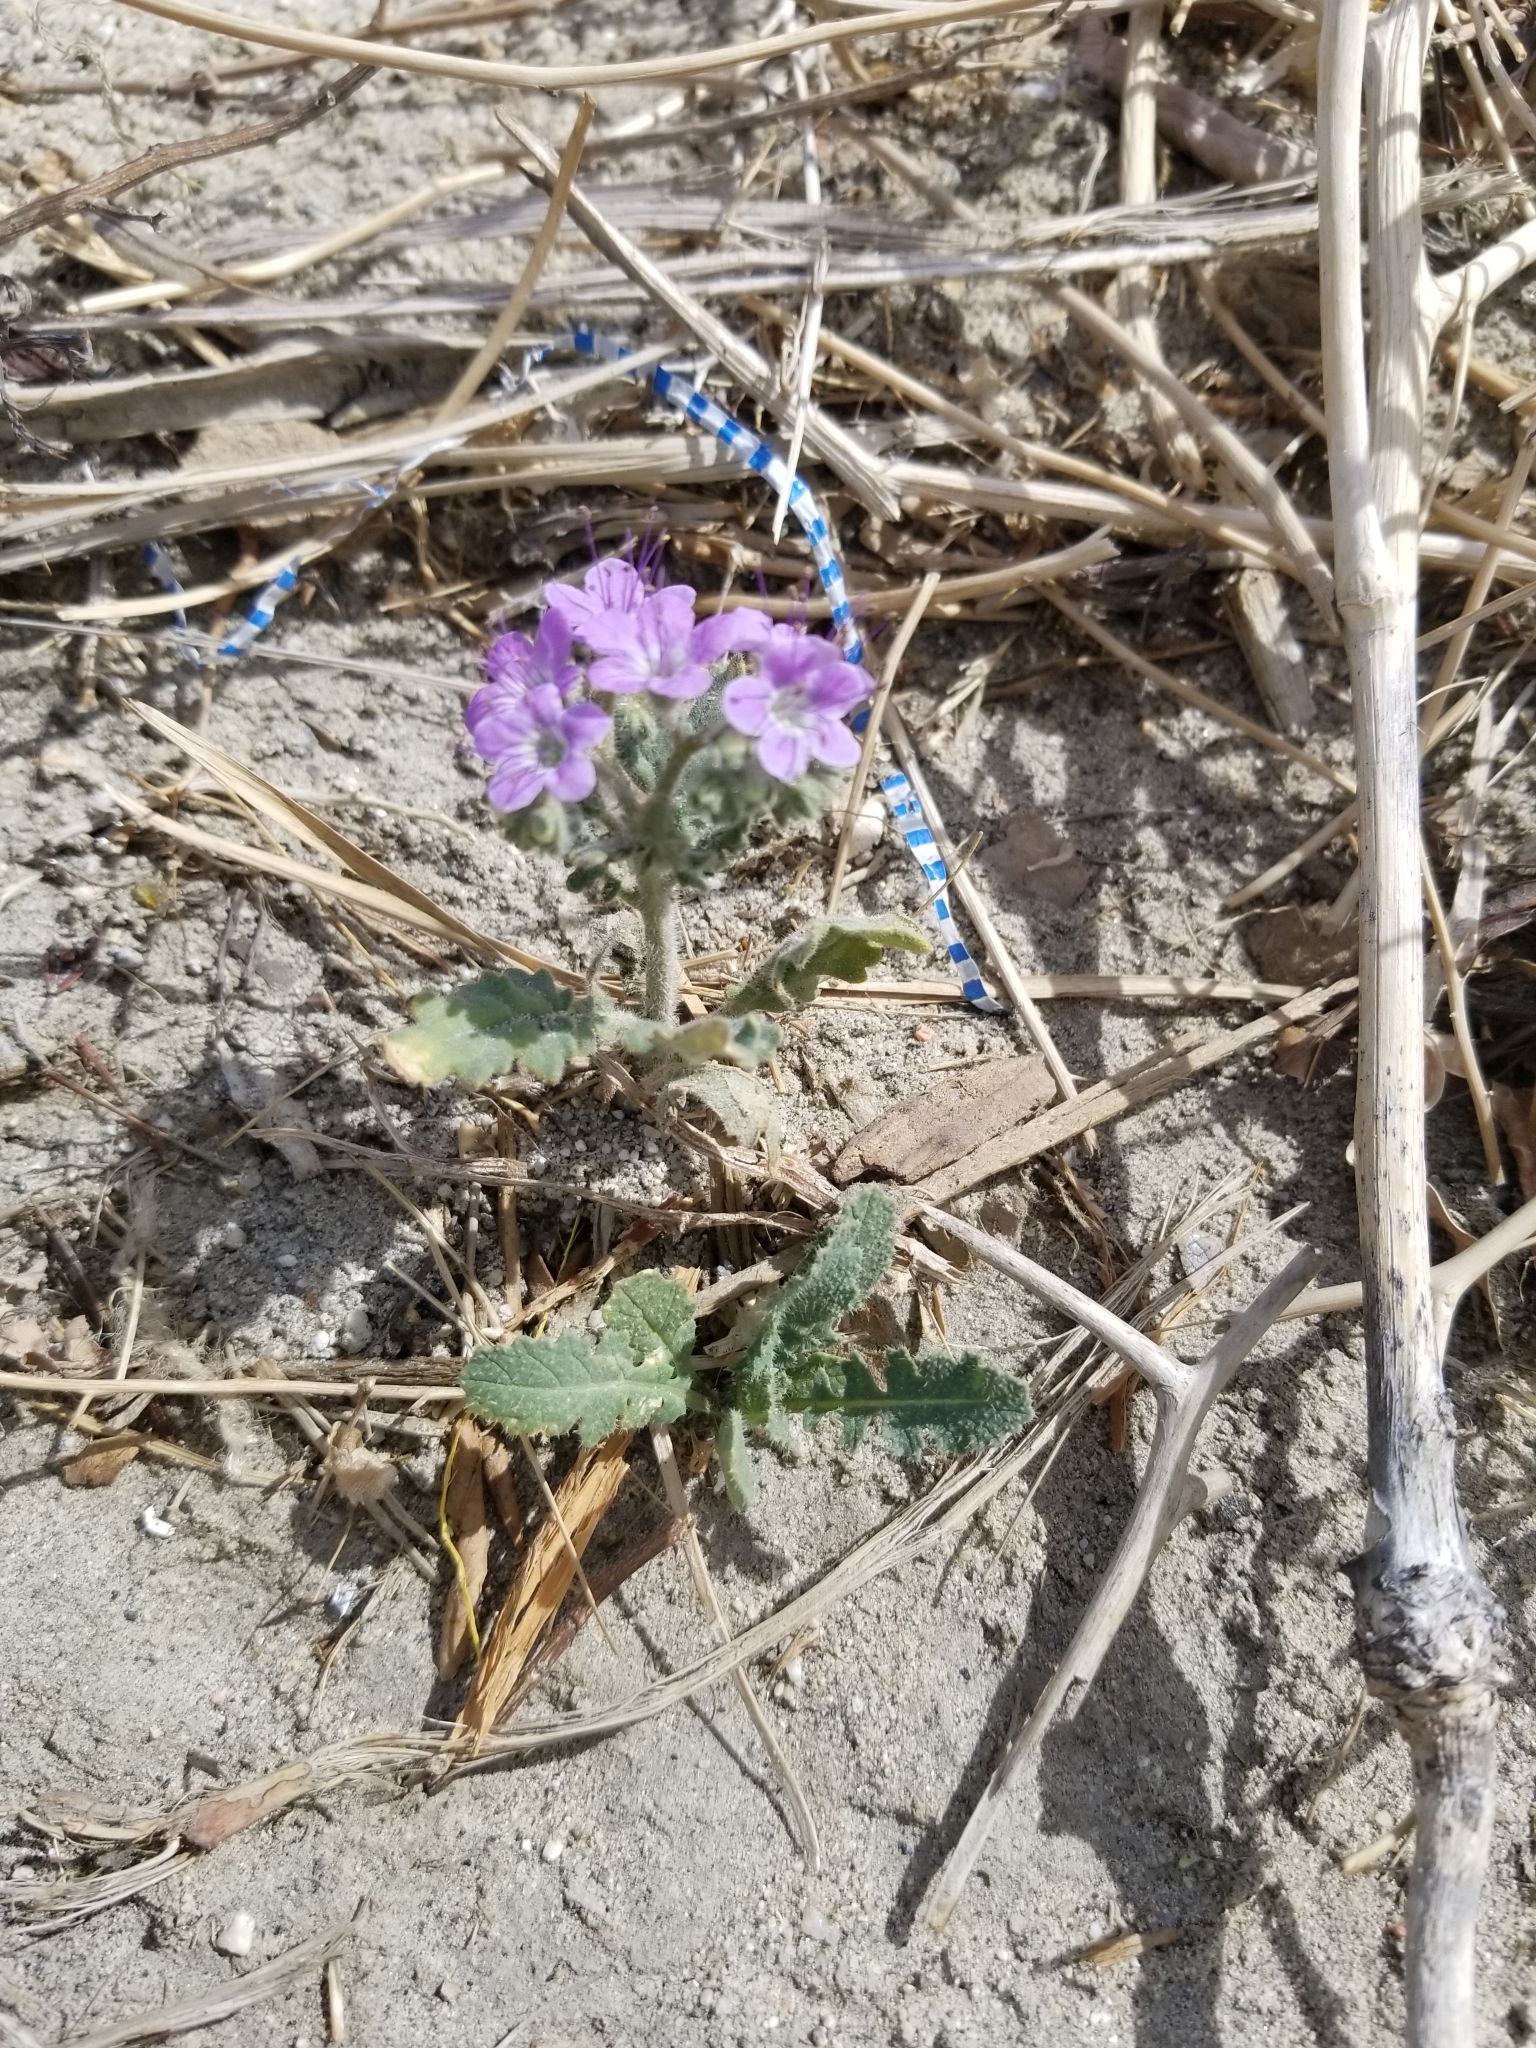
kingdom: Plantae
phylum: Tracheophyta
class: Magnoliopsida
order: Boraginales
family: Hydrophyllaceae
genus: Phacelia
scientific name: Phacelia crenulata
